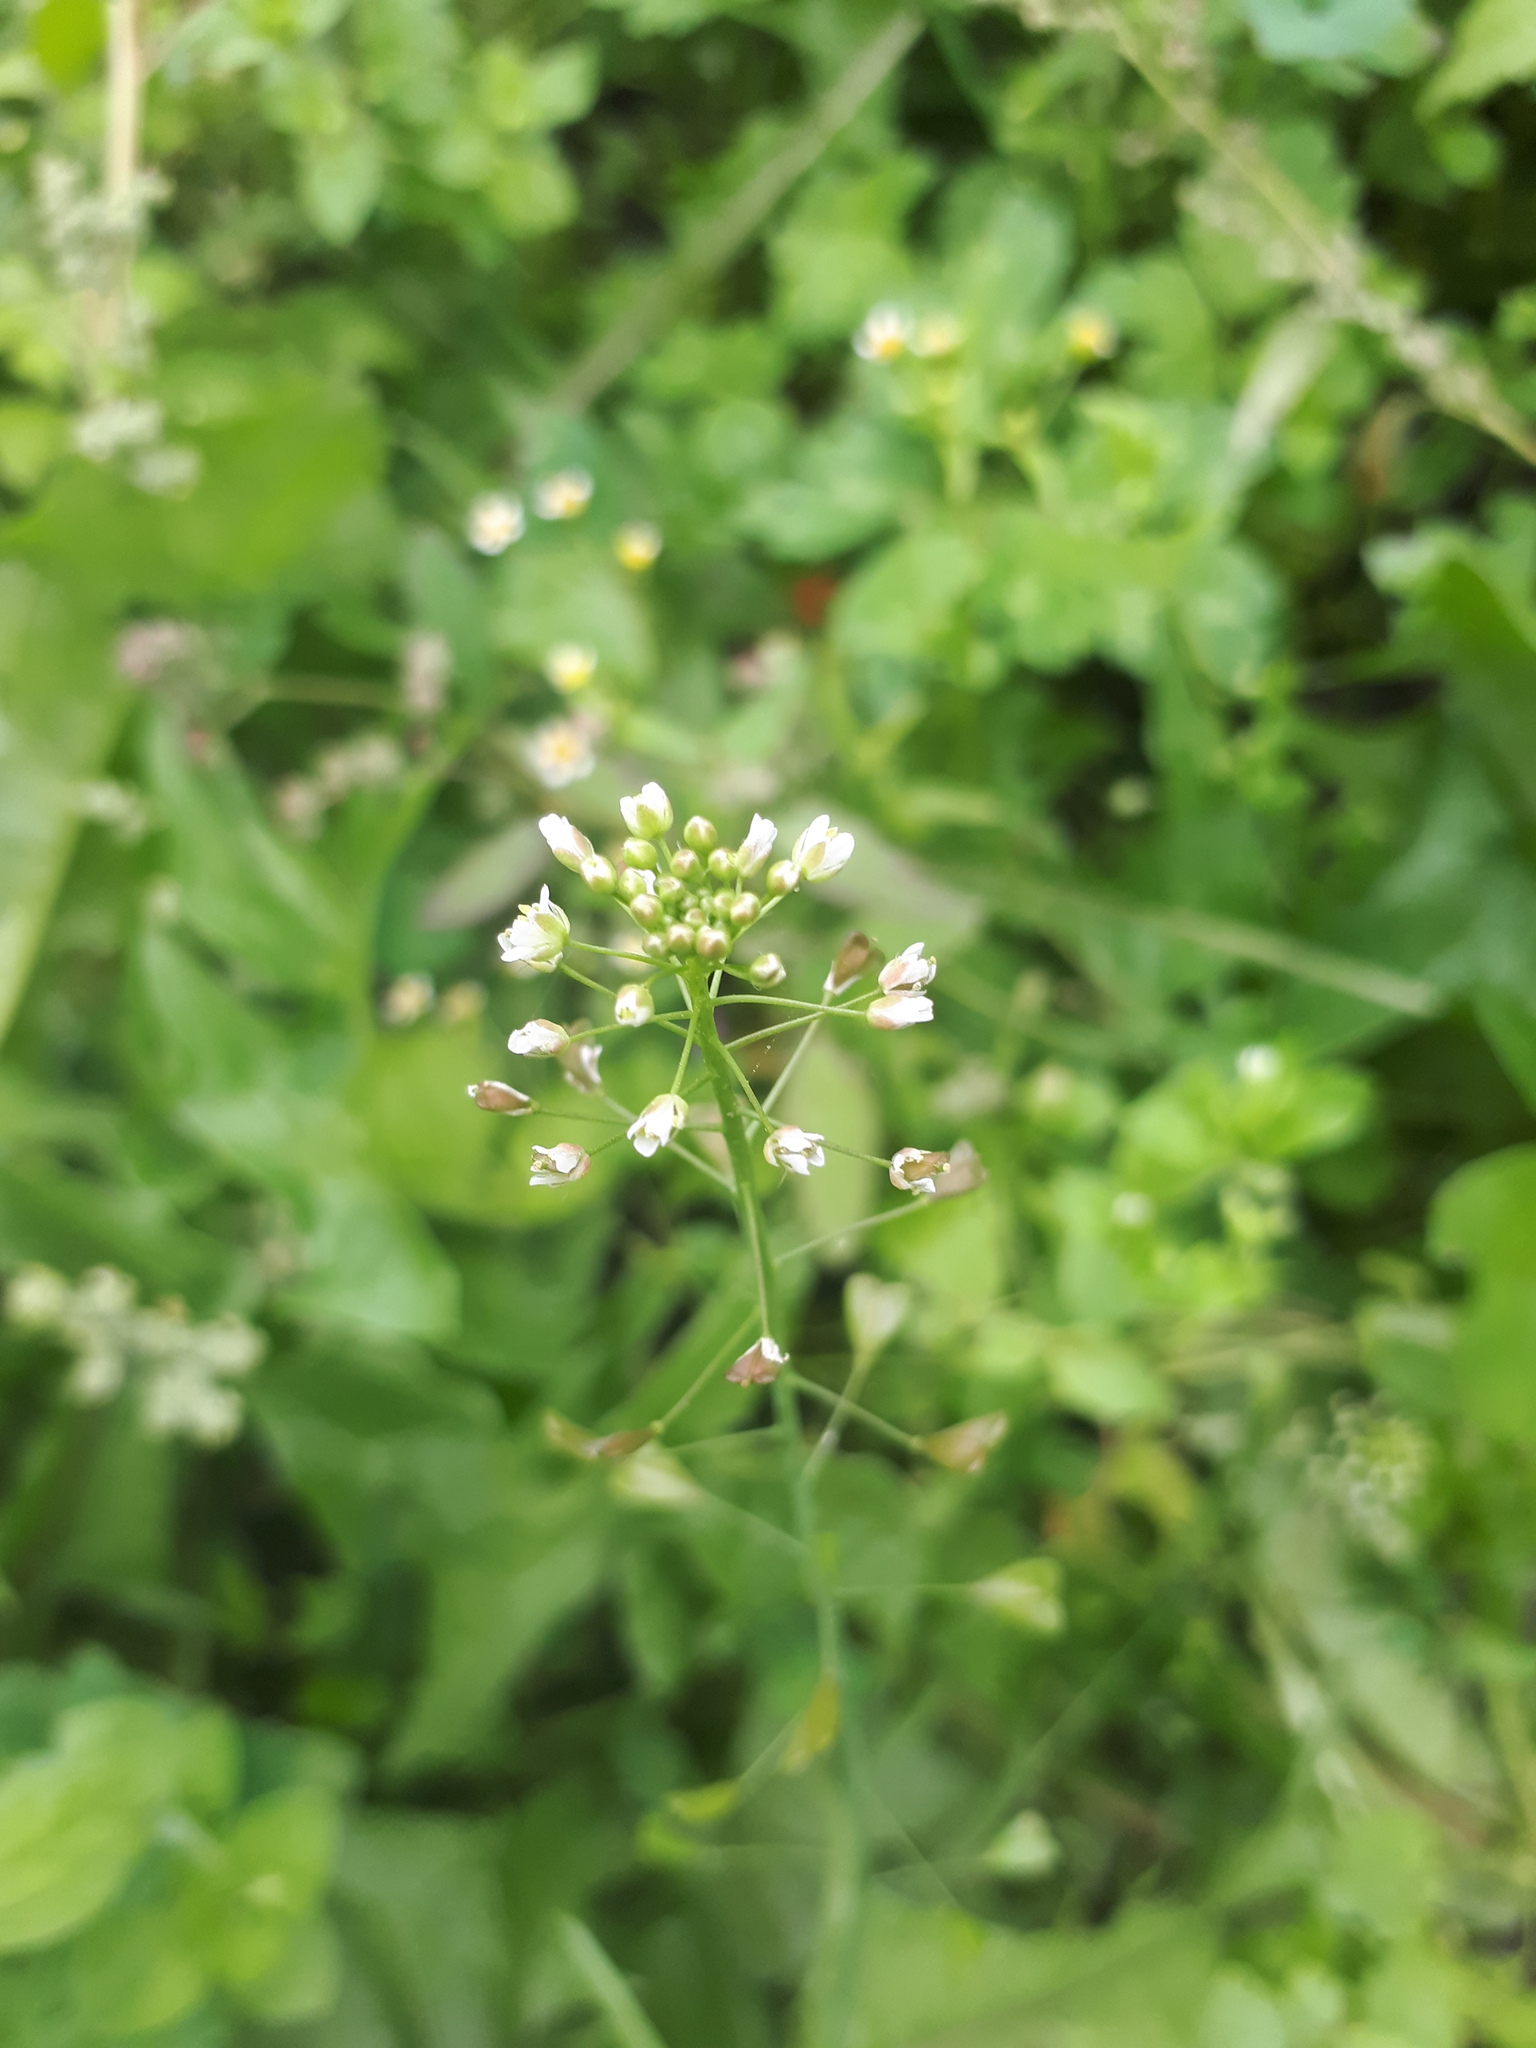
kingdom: Plantae
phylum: Tracheophyta
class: Magnoliopsida
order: Brassicales
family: Brassicaceae
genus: Capsella
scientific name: Capsella bursa-pastoris
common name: Shepherd's purse
